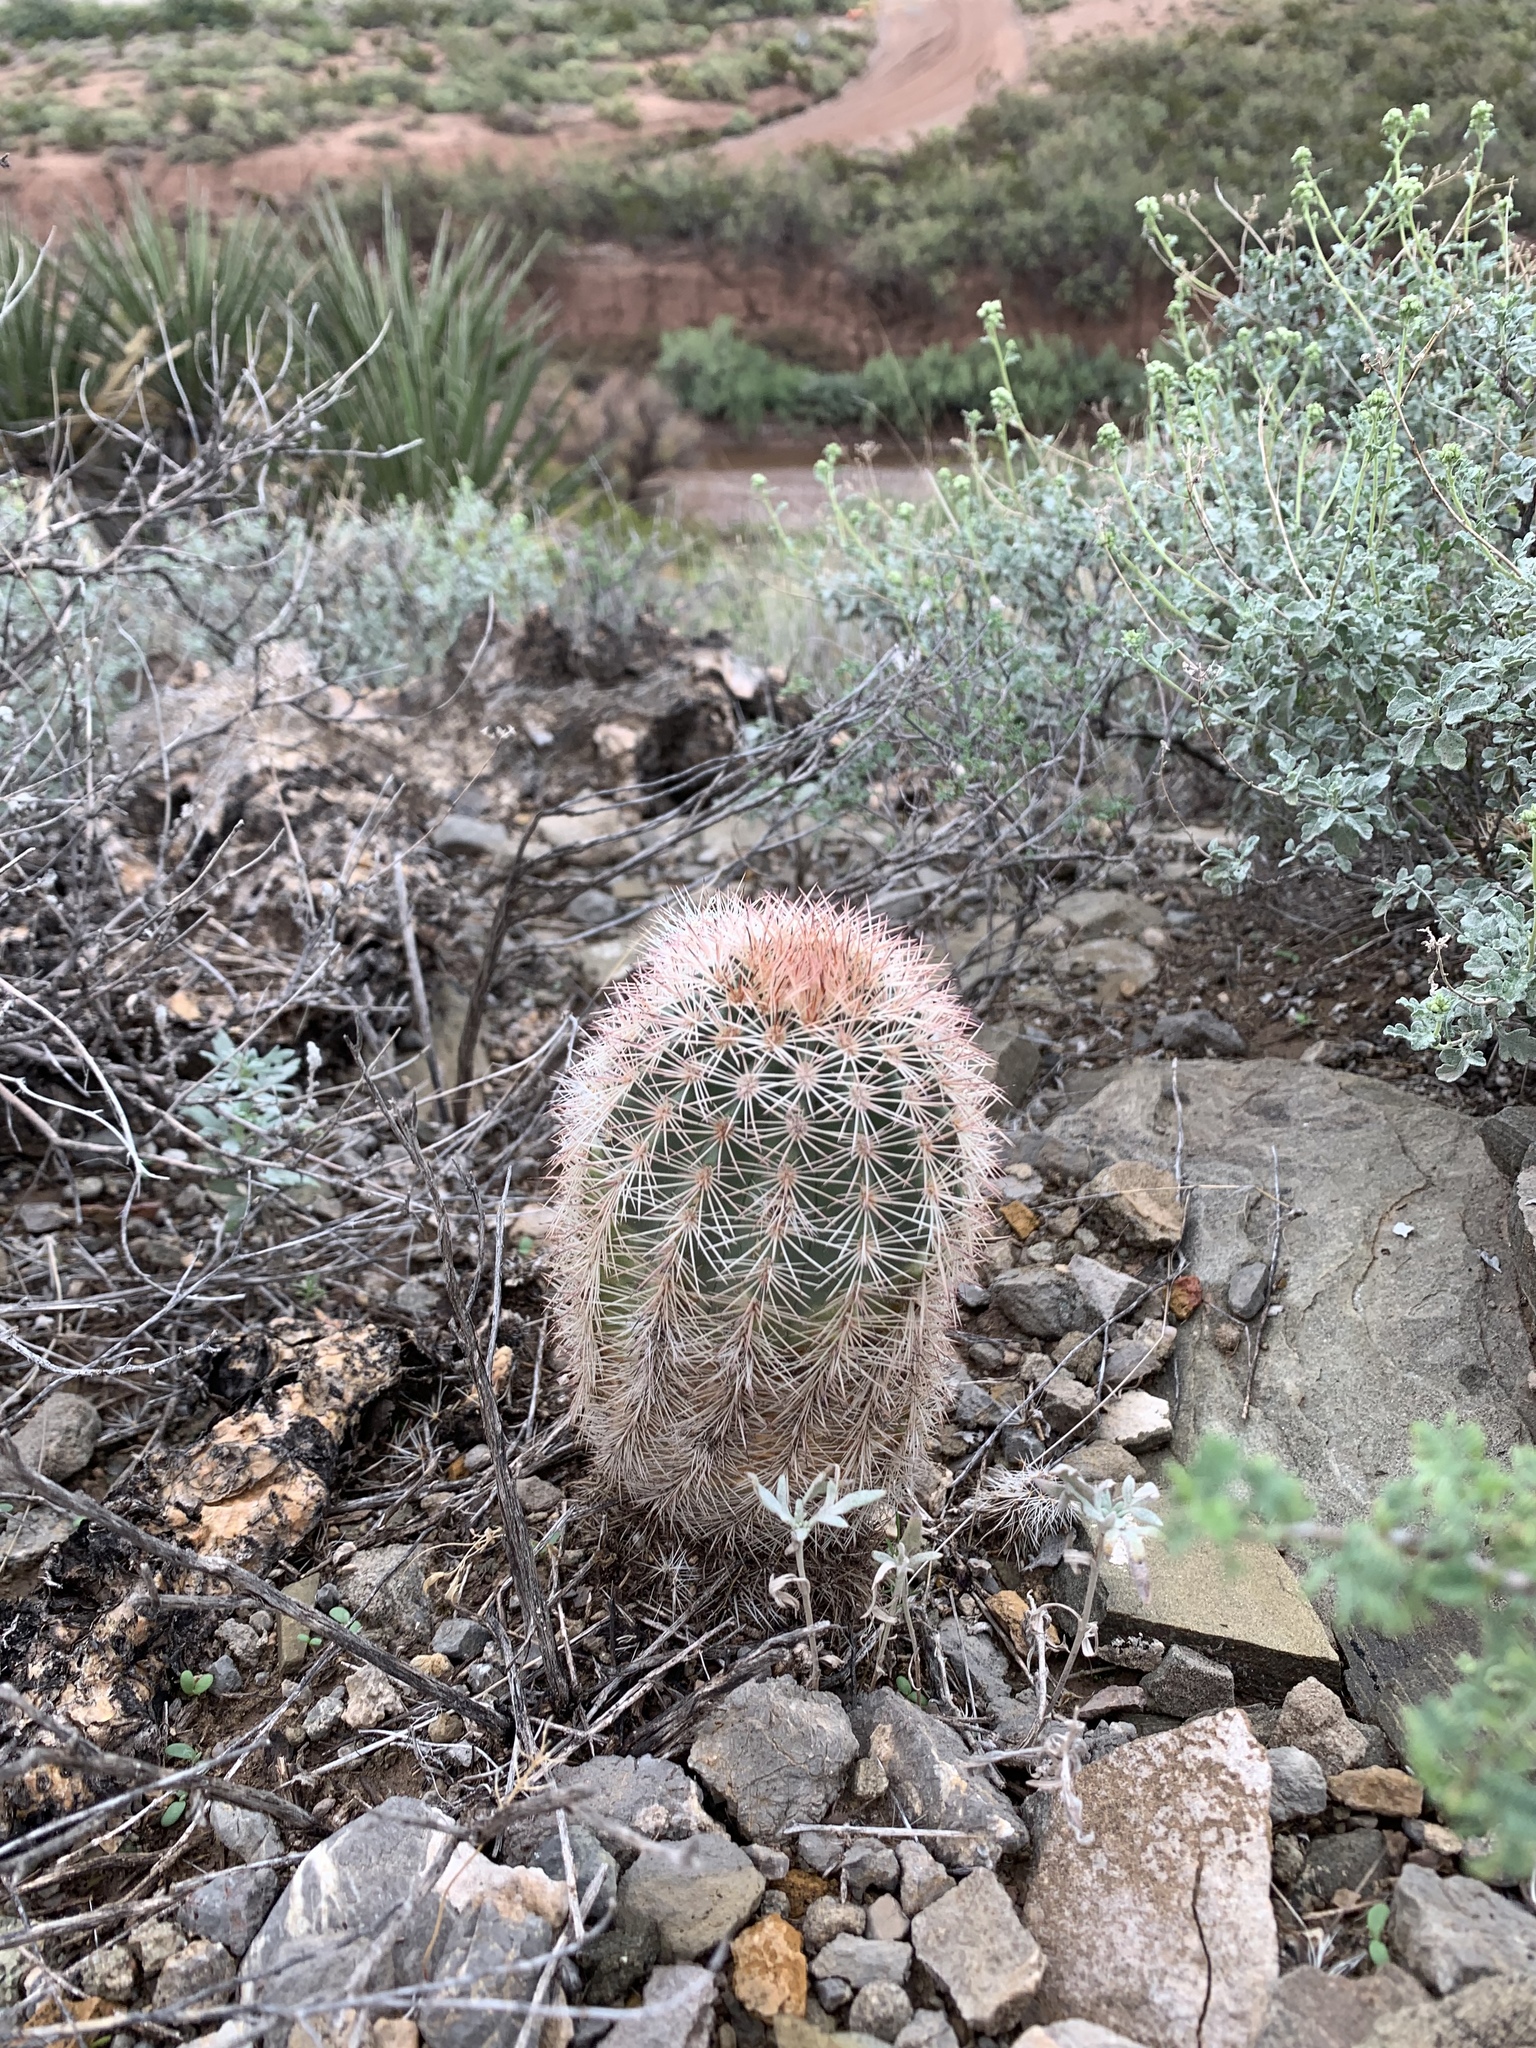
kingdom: Plantae
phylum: Tracheophyta
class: Magnoliopsida
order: Caryophyllales
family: Cactaceae
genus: Echinocereus
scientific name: Echinocereus dasyacanthus
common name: Spiny hedgehog cactus
